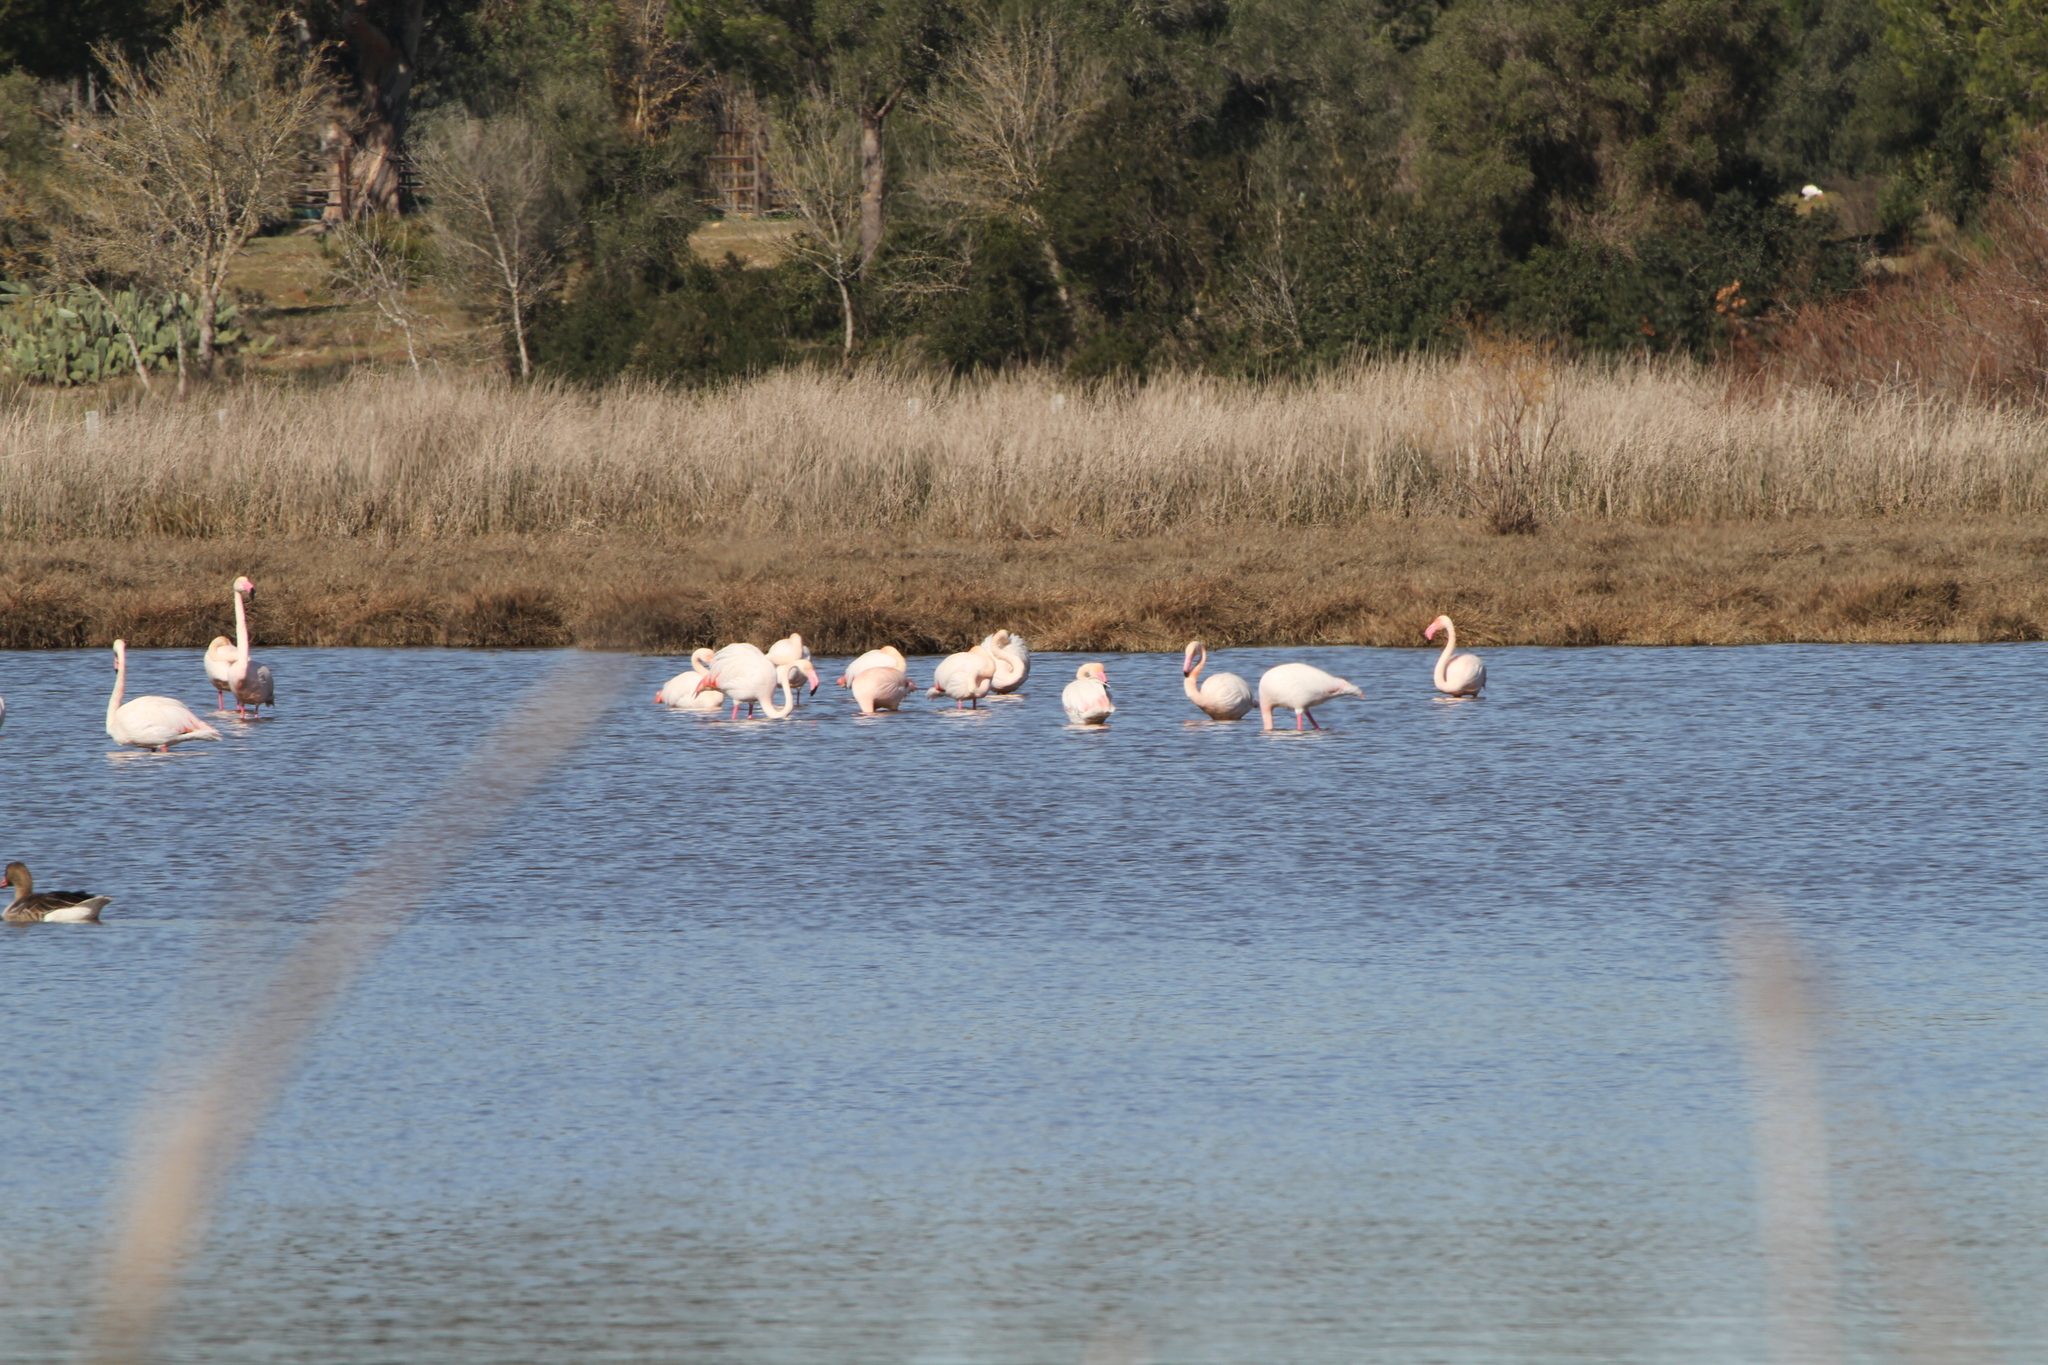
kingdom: Animalia
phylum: Chordata
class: Aves
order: Phoenicopteriformes
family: Phoenicopteridae
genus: Phoenicopterus
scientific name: Phoenicopterus roseus
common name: Greater flamingo
